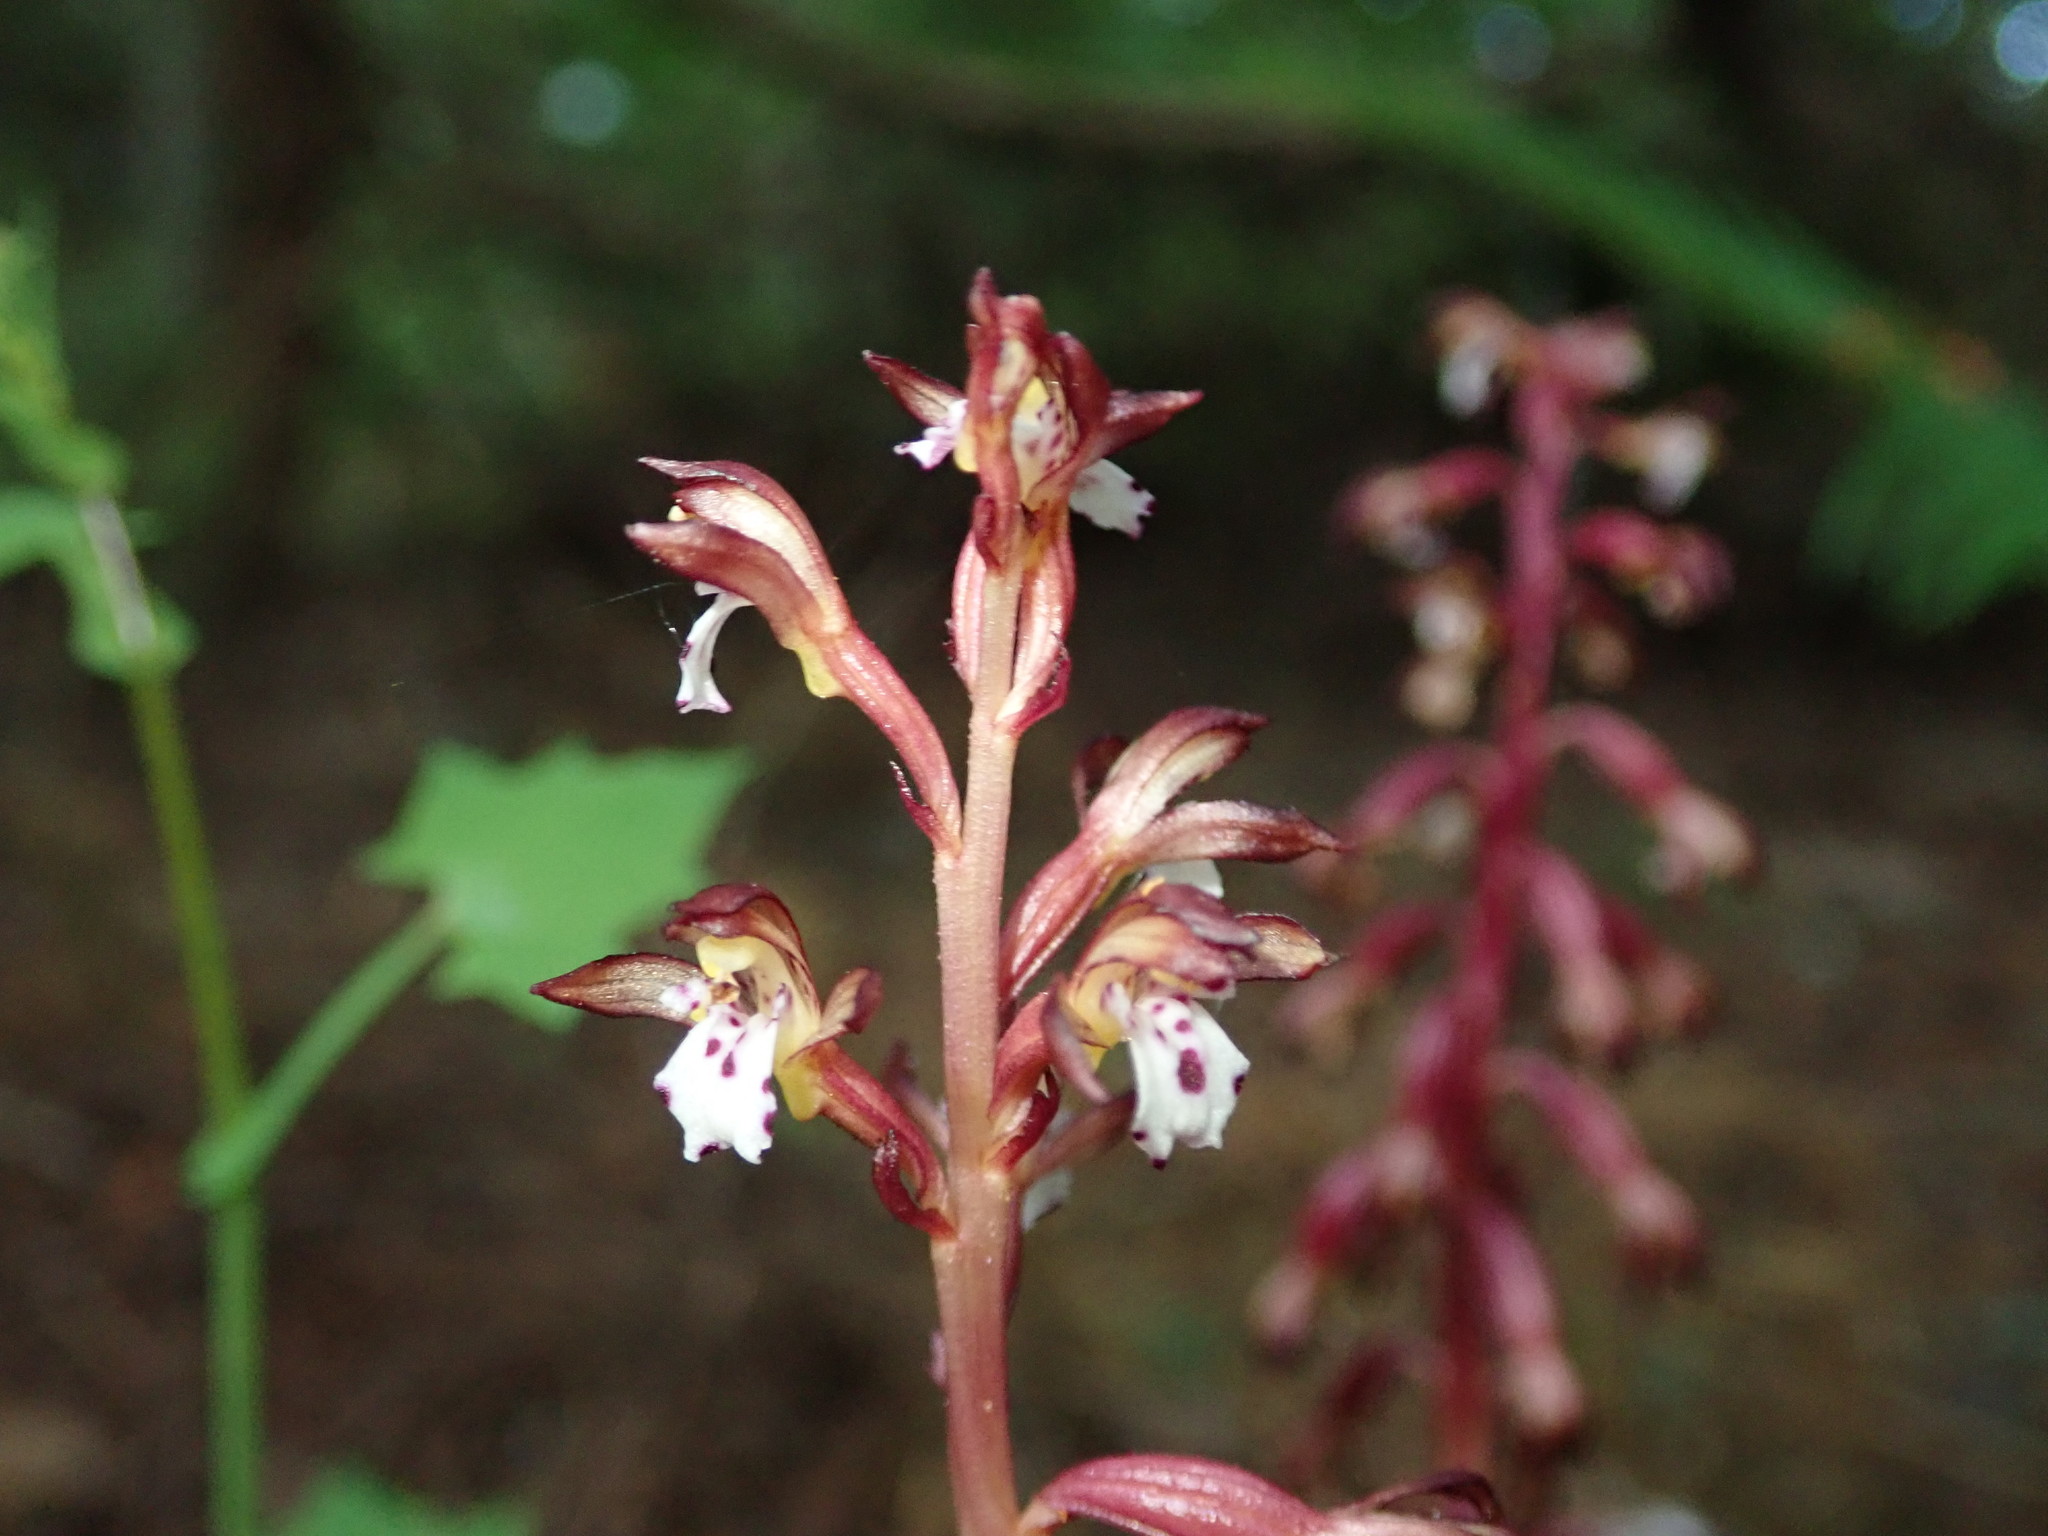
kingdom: Plantae
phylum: Tracheophyta
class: Liliopsida
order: Asparagales
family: Orchidaceae
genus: Corallorhiza
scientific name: Corallorhiza maculata
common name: Spotted coralroot
